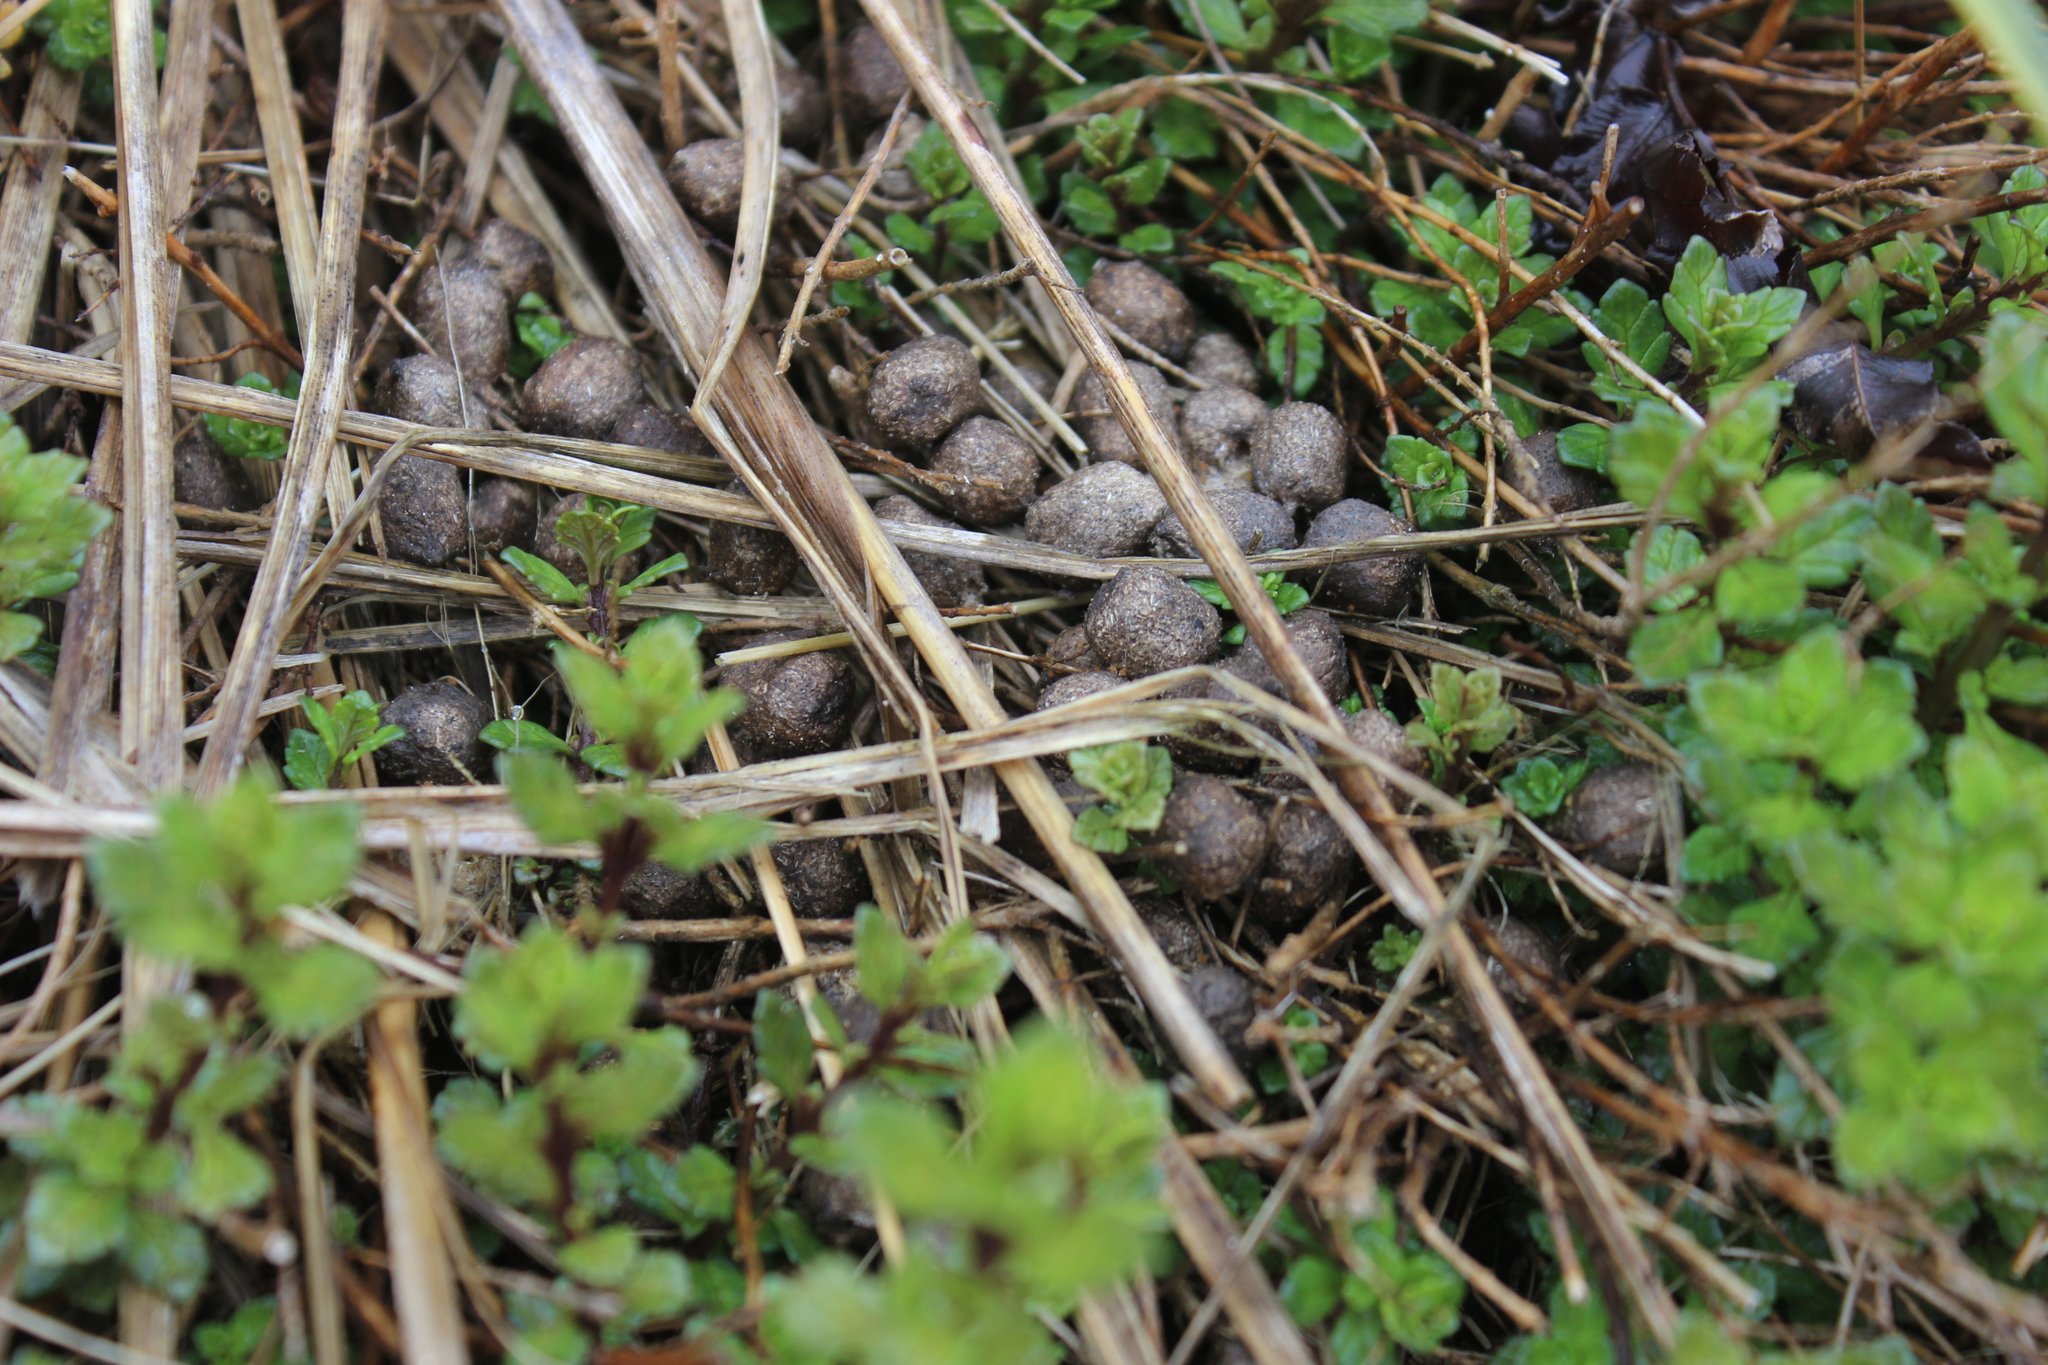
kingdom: Animalia
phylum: Chordata
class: Mammalia
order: Lagomorpha
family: Leporidae
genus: Oryctolagus
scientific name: Oryctolagus cuniculus
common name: European rabbit
